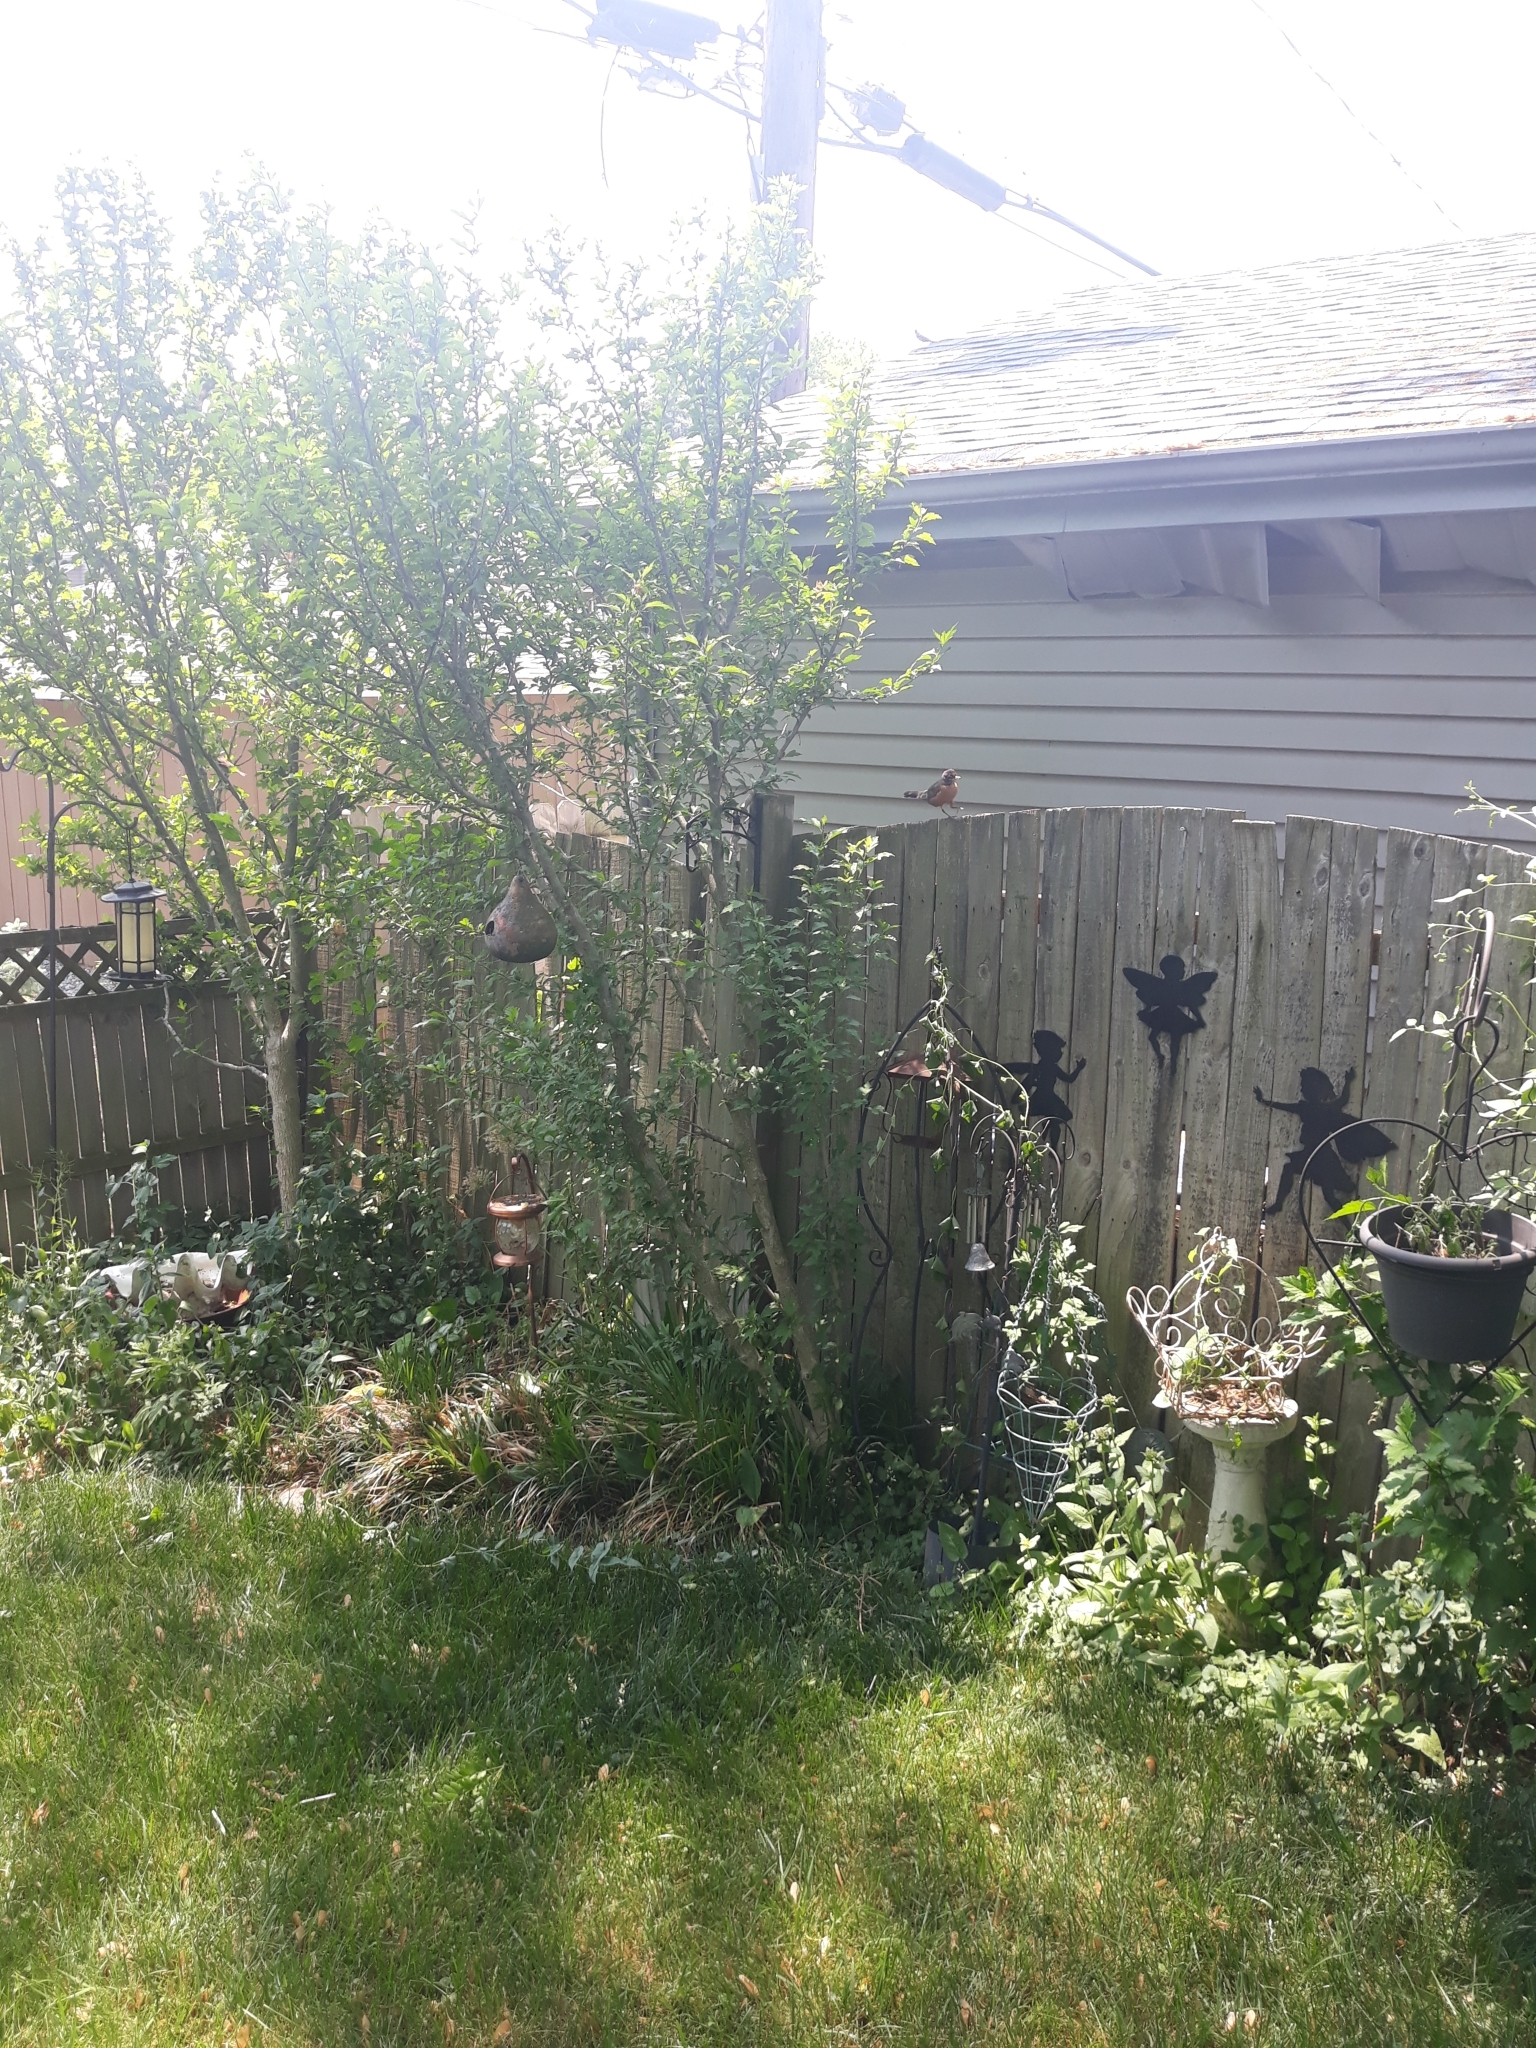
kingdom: Animalia
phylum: Chordata
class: Aves
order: Passeriformes
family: Turdidae
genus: Turdus
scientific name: Turdus migratorius
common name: American robin
